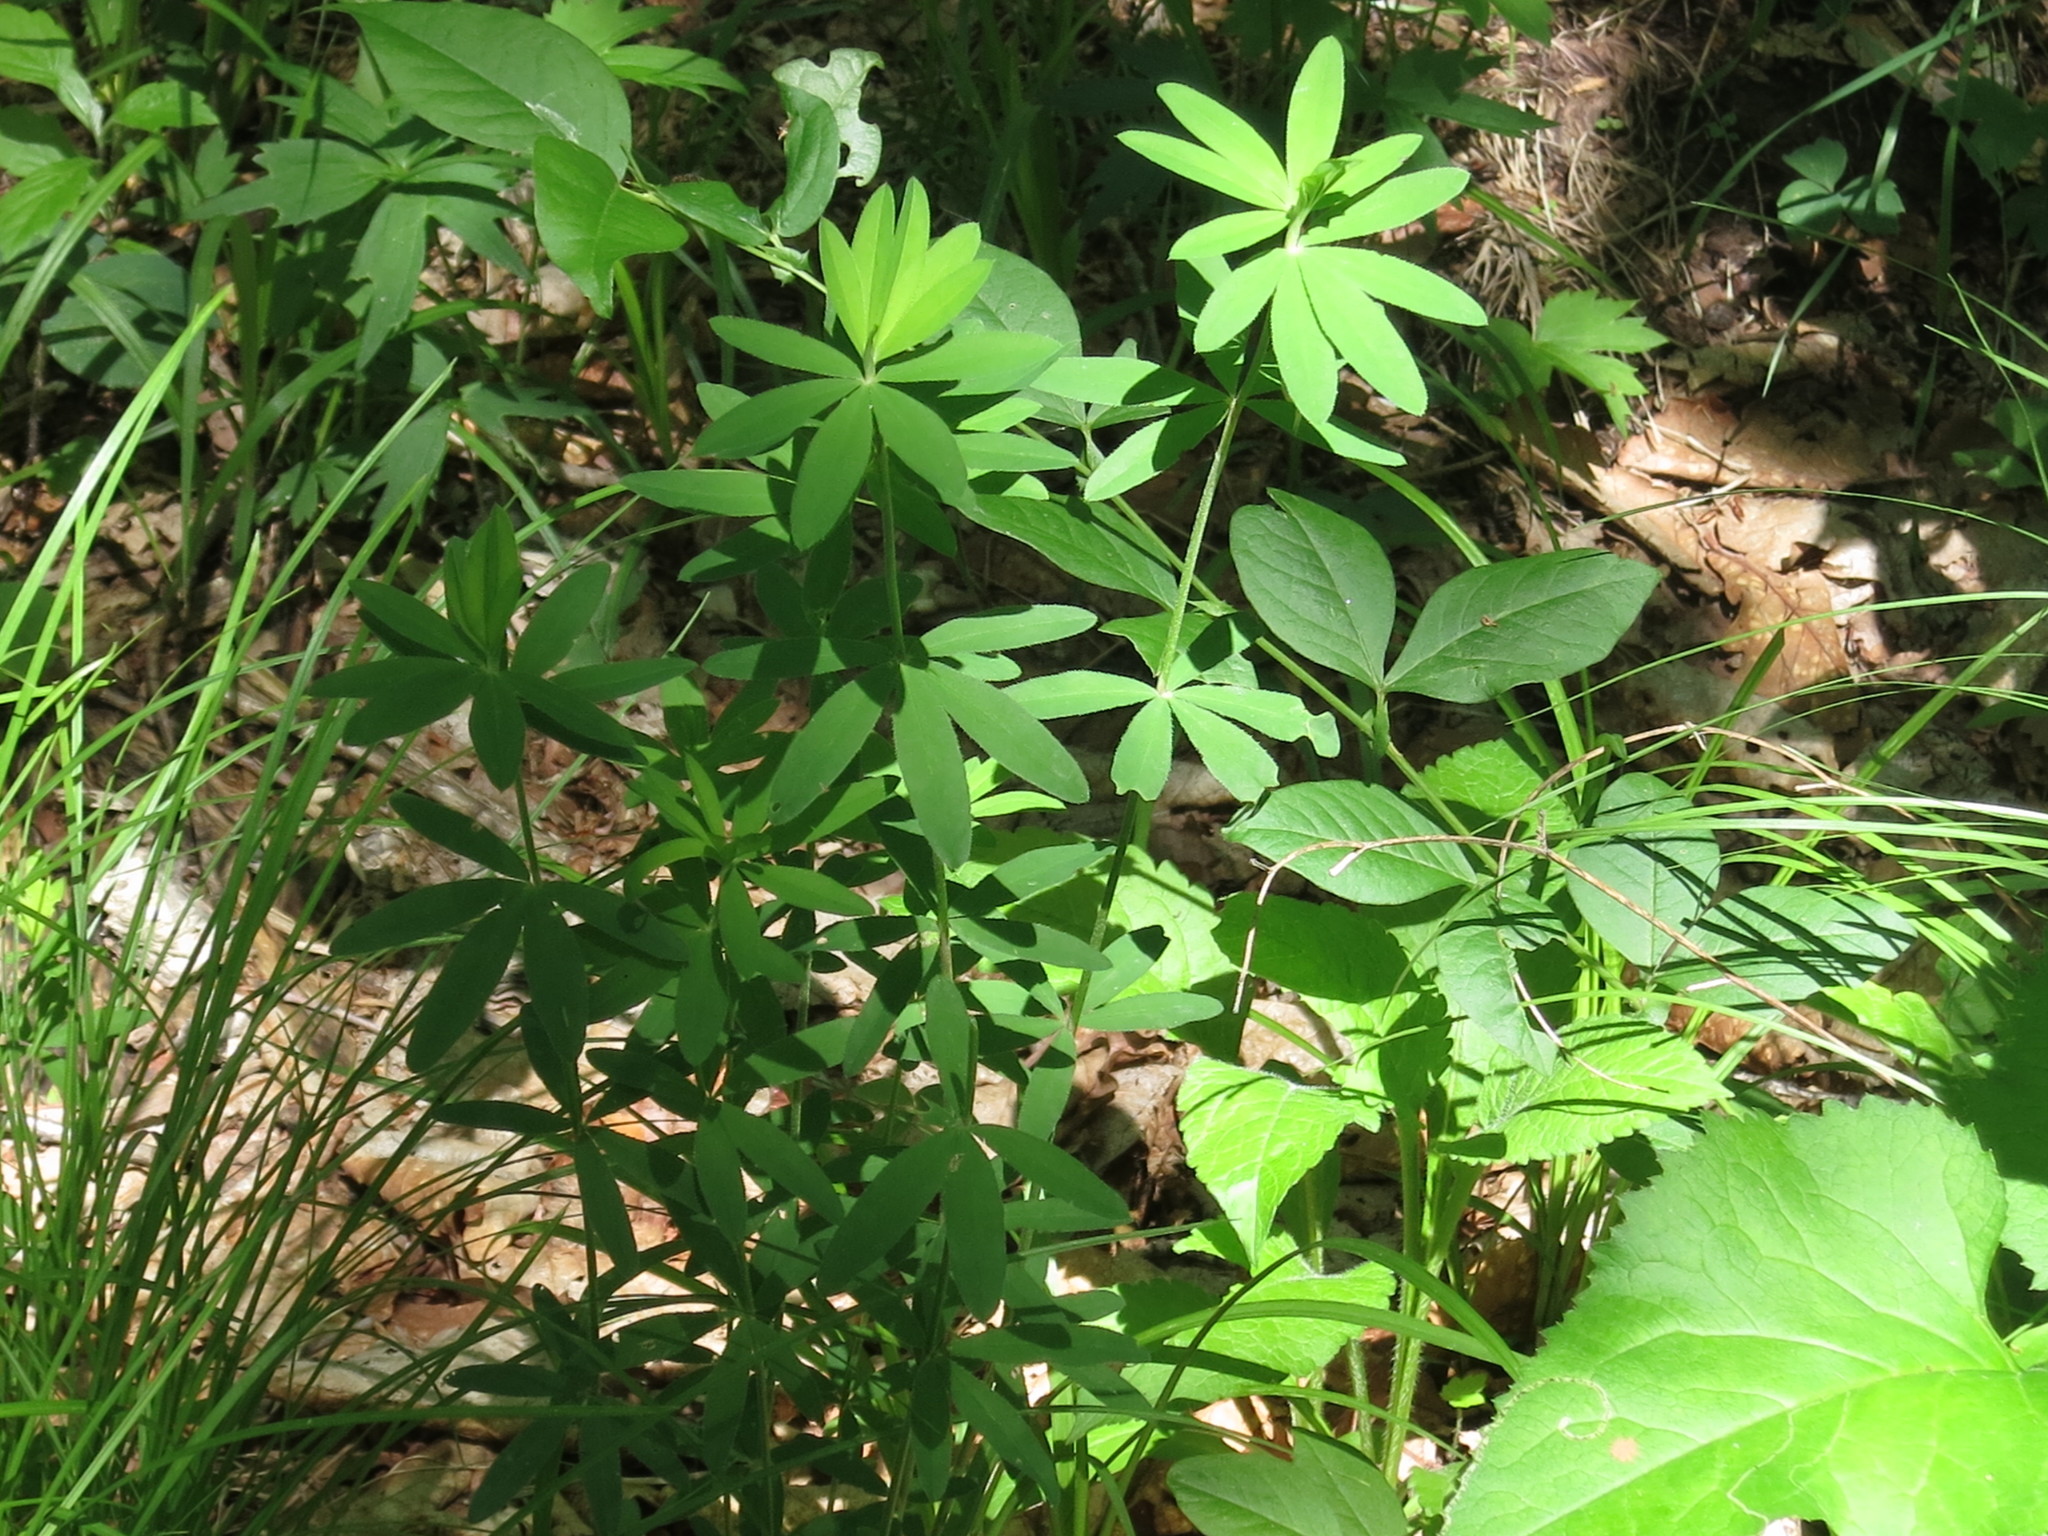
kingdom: Plantae
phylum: Tracheophyta
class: Magnoliopsida
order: Fabales
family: Fabaceae
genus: Trifolium
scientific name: Trifolium lupinaster
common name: Lupine clover
